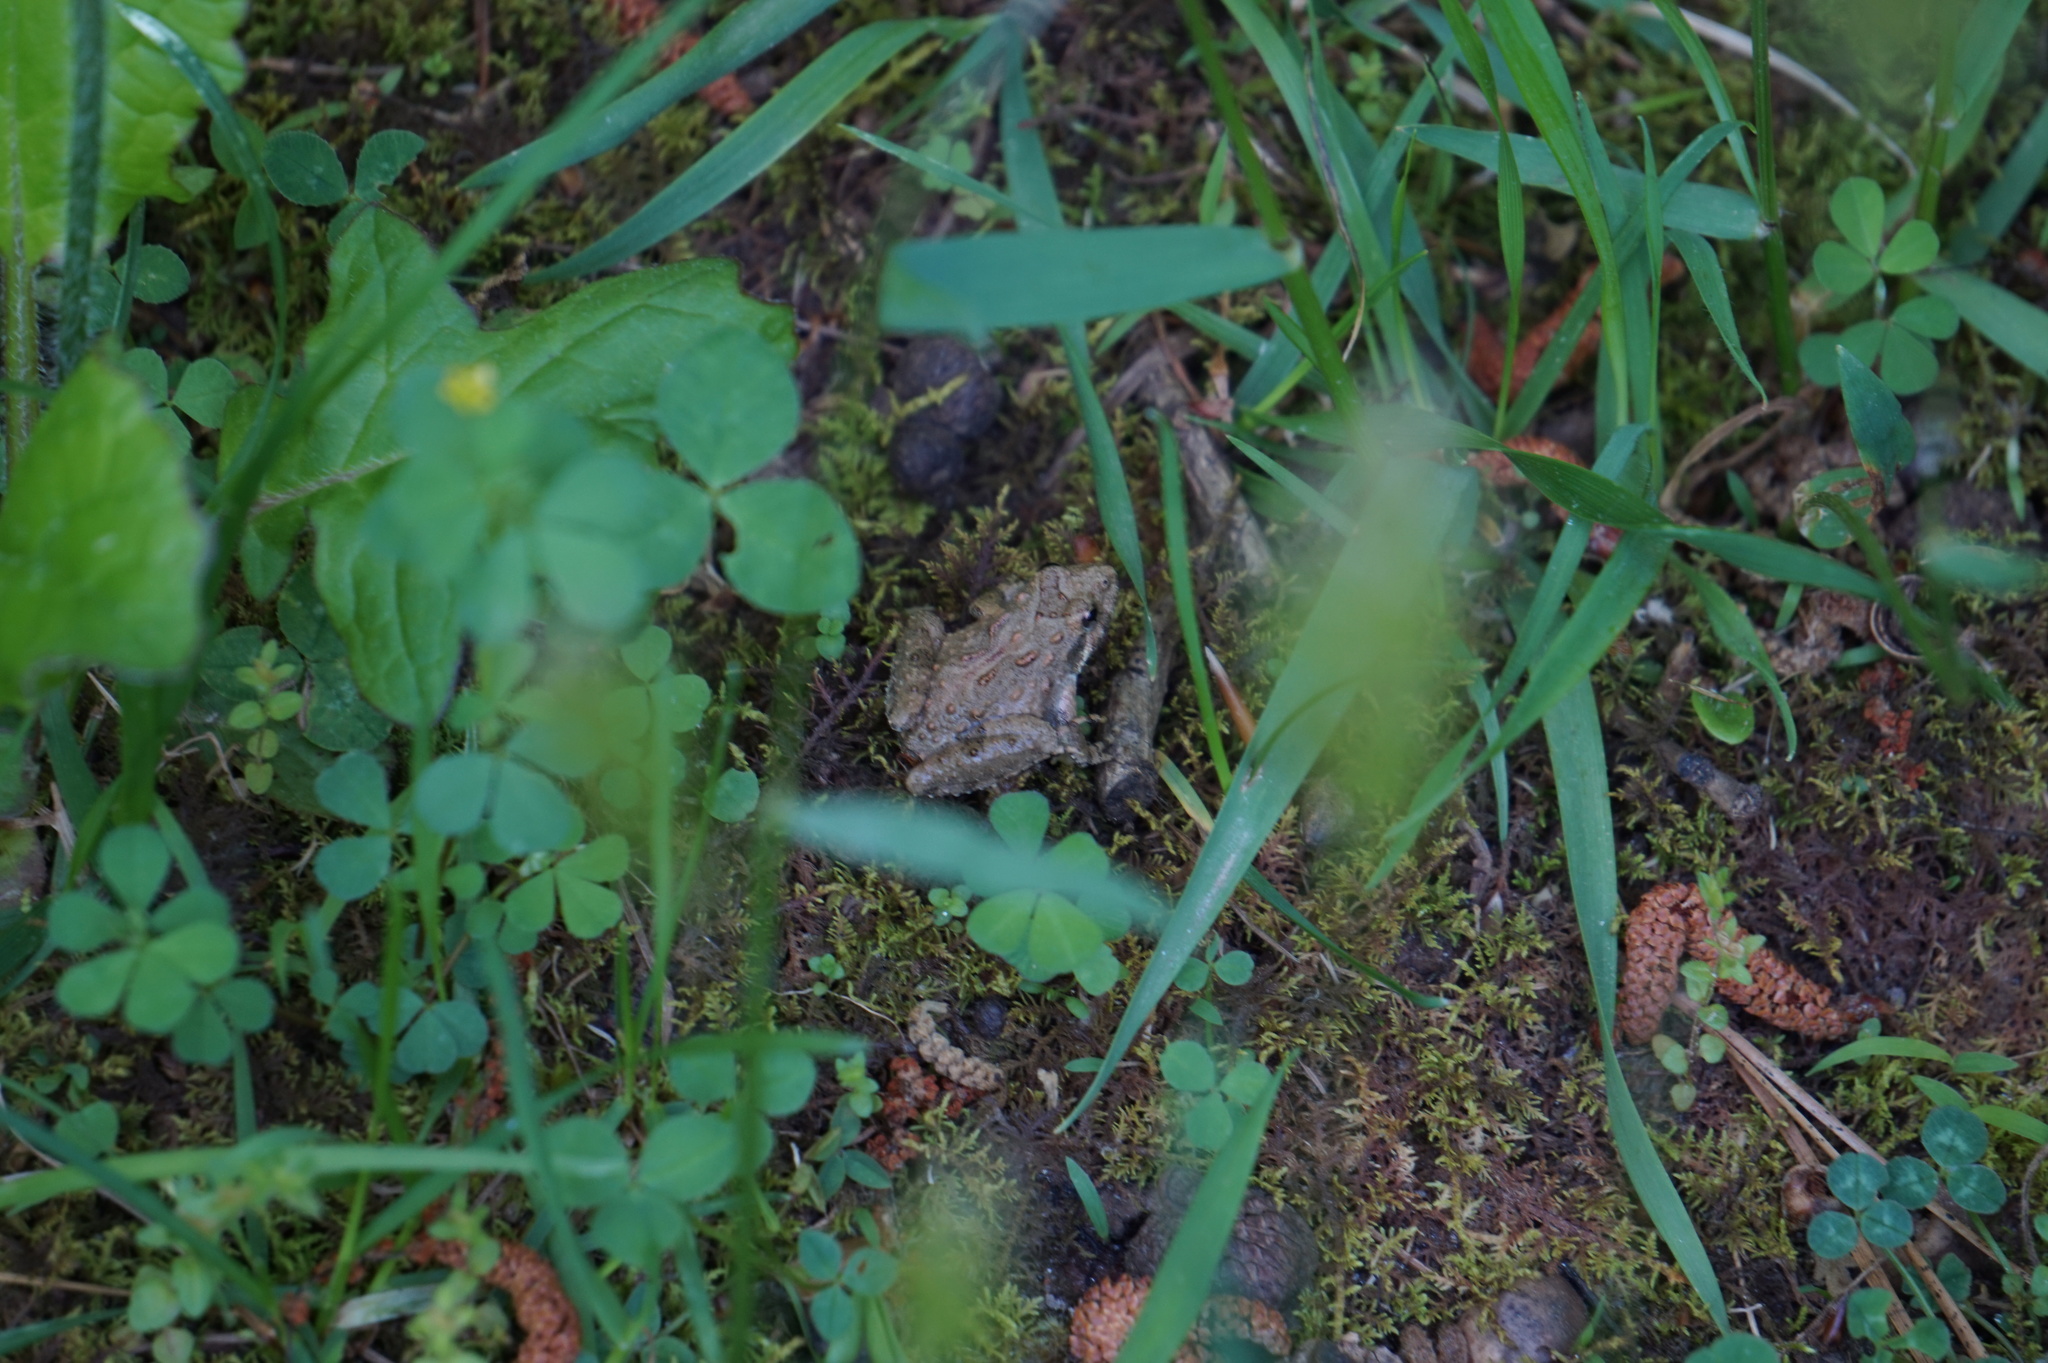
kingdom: Animalia
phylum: Chordata
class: Amphibia
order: Anura
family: Hylidae
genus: Acris
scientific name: Acris crepitans
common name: Northern cricket frog
